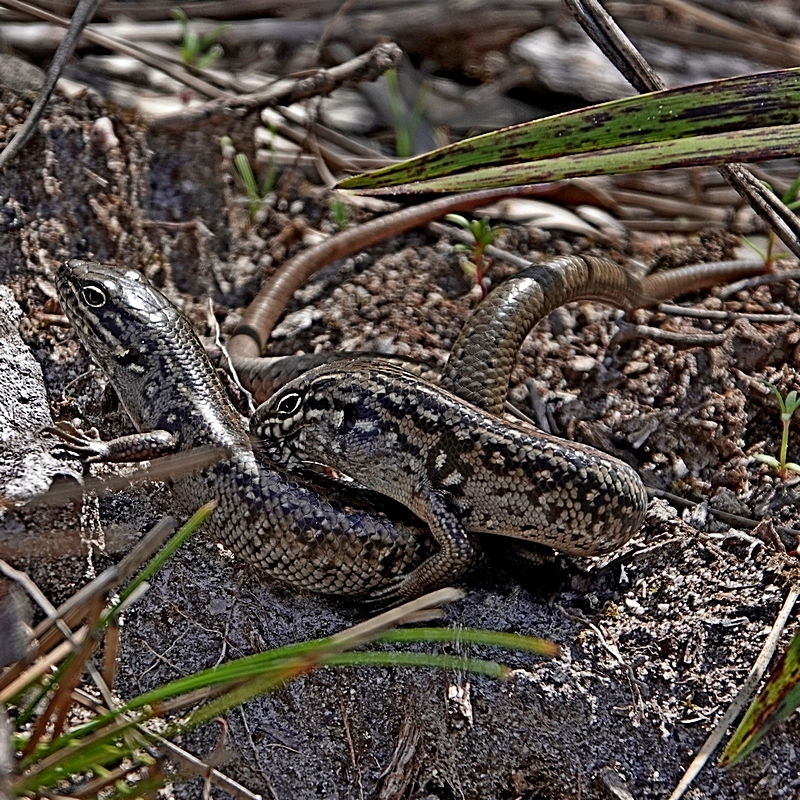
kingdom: Animalia
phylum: Chordata
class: Squamata
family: Scincidae
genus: Liopholis
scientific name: Liopholis whitii
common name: White's rock-skink
